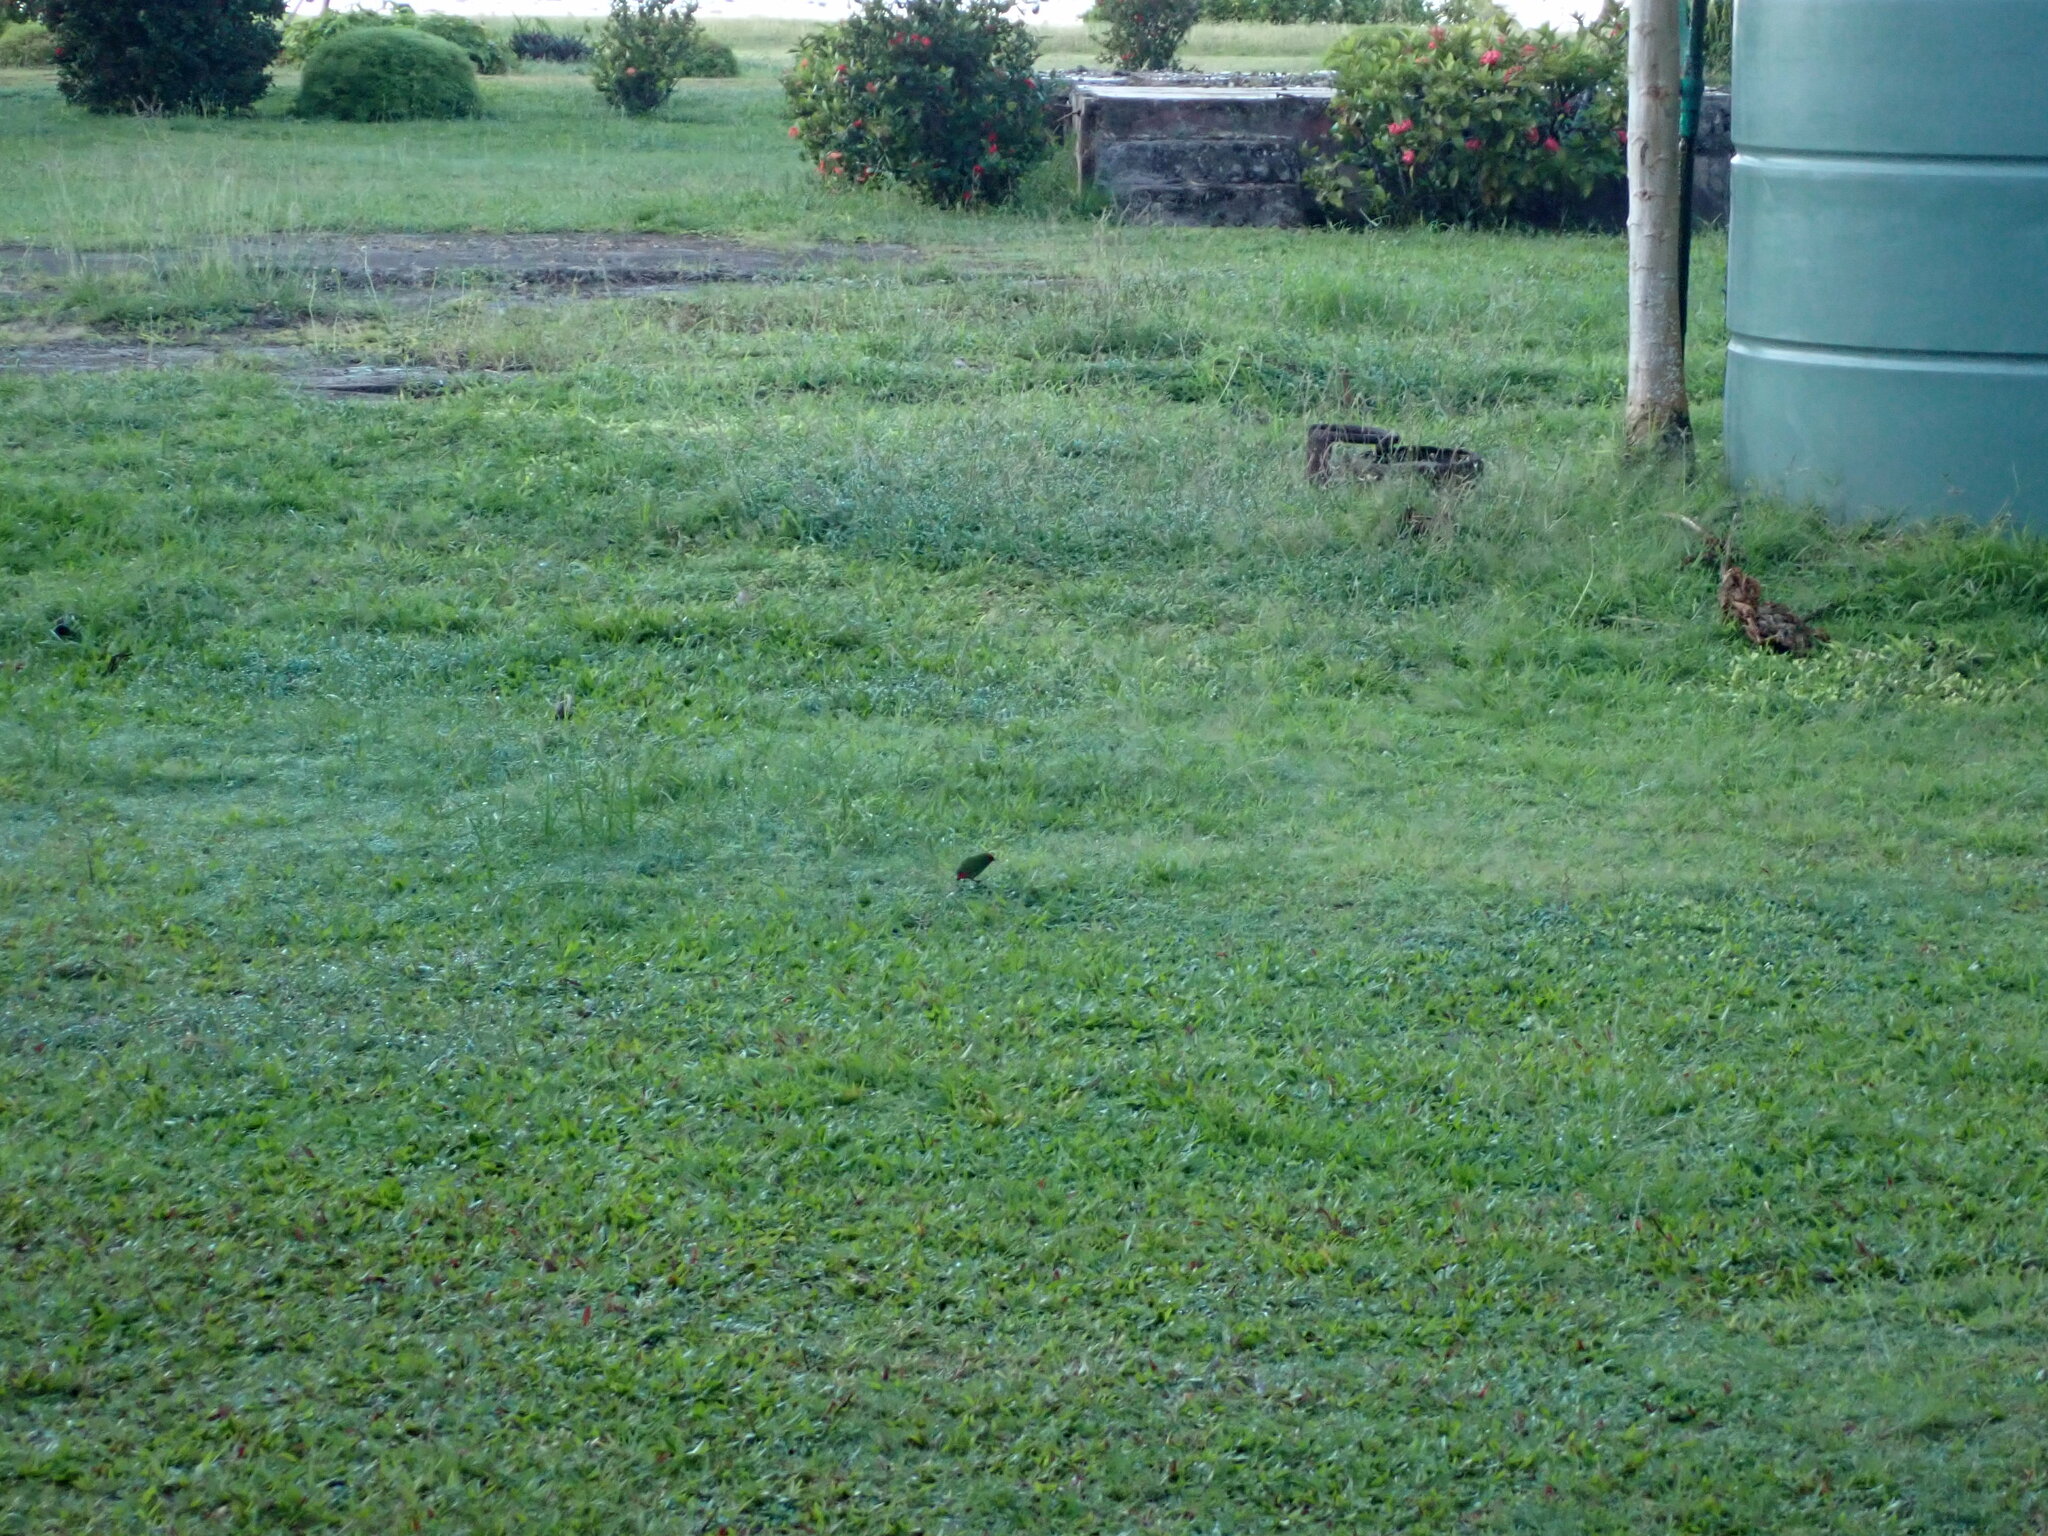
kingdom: Animalia
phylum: Chordata
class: Aves
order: Passeriformes
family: Estrildidae
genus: Erythrura
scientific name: Erythrura pealii
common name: Fiji parrotfinch
